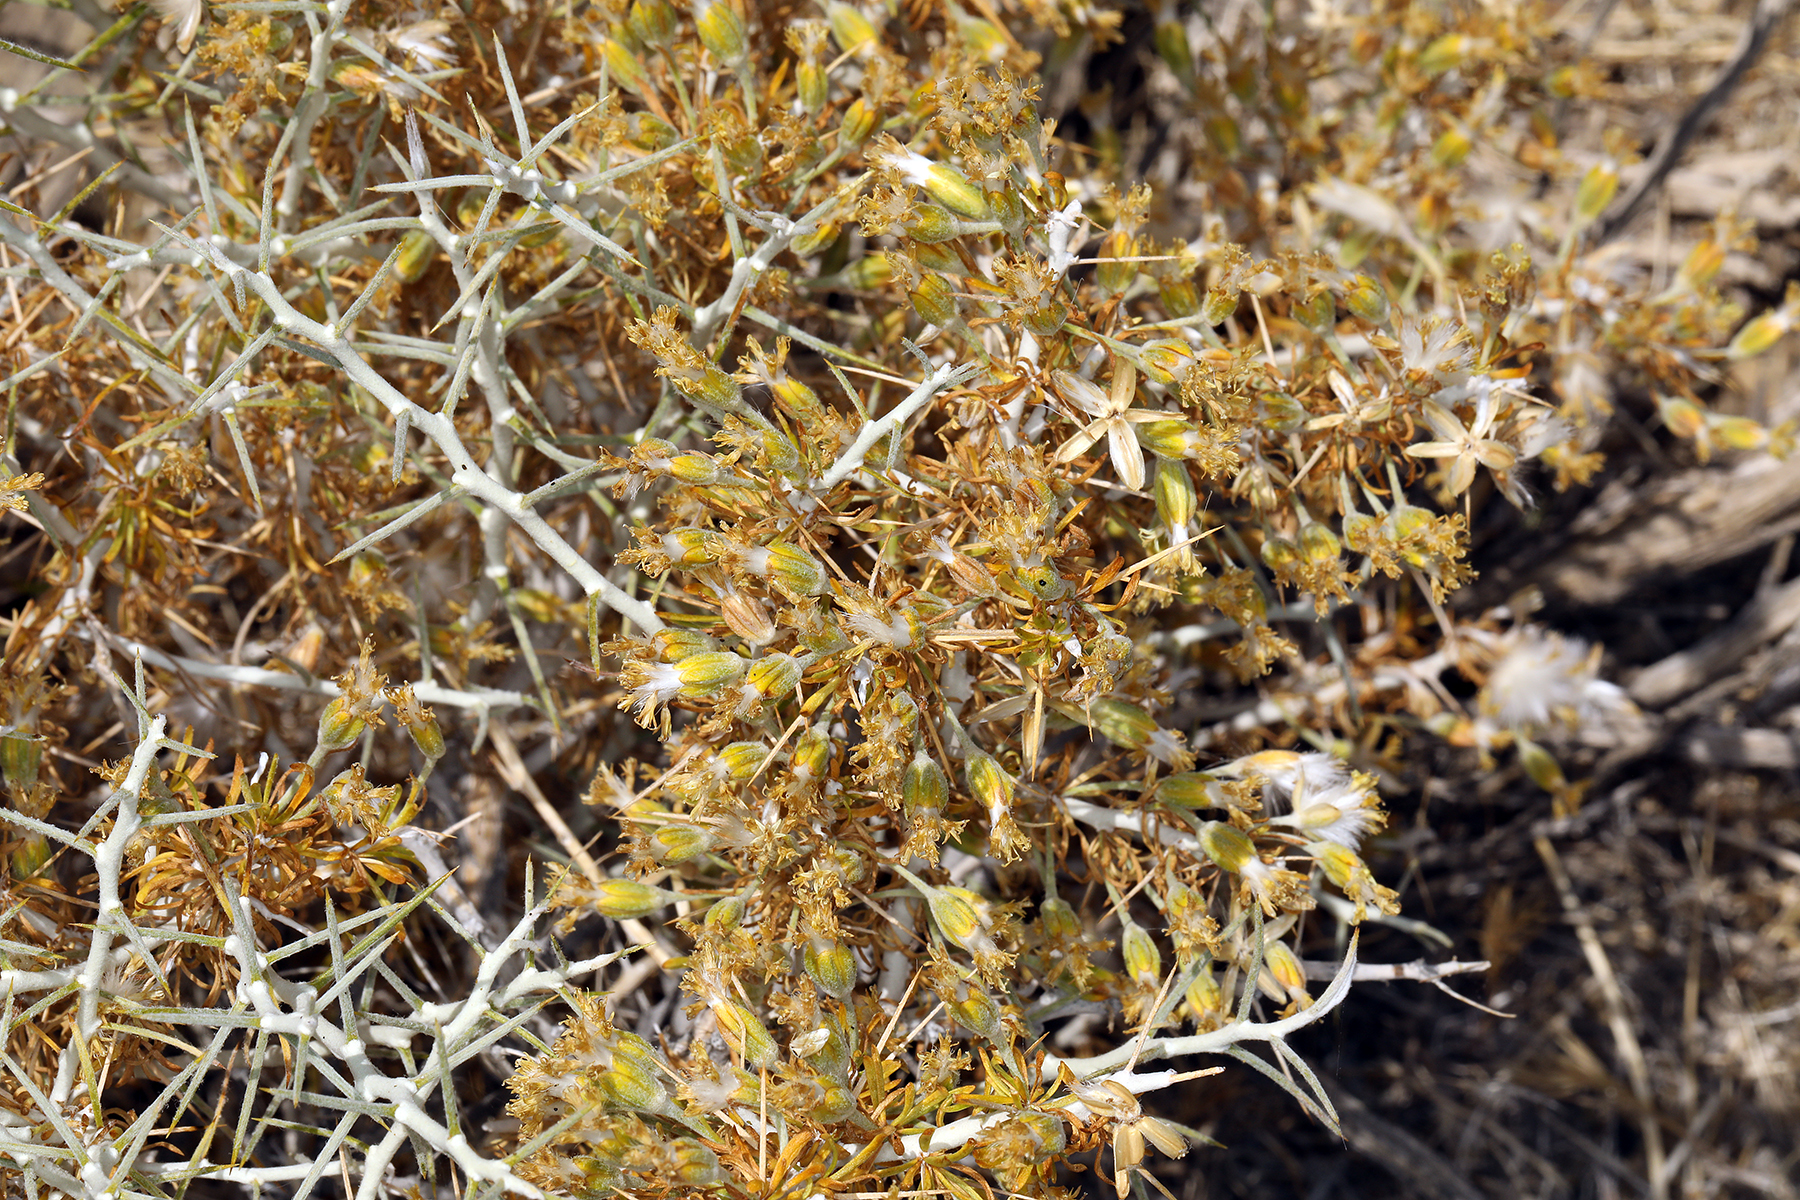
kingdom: Plantae
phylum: Tracheophyta
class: Magnoliopsida
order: Asterales
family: Asteraceae
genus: Tetradymia
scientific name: Tetradymia axillaris
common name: Long-spine horsebrush
